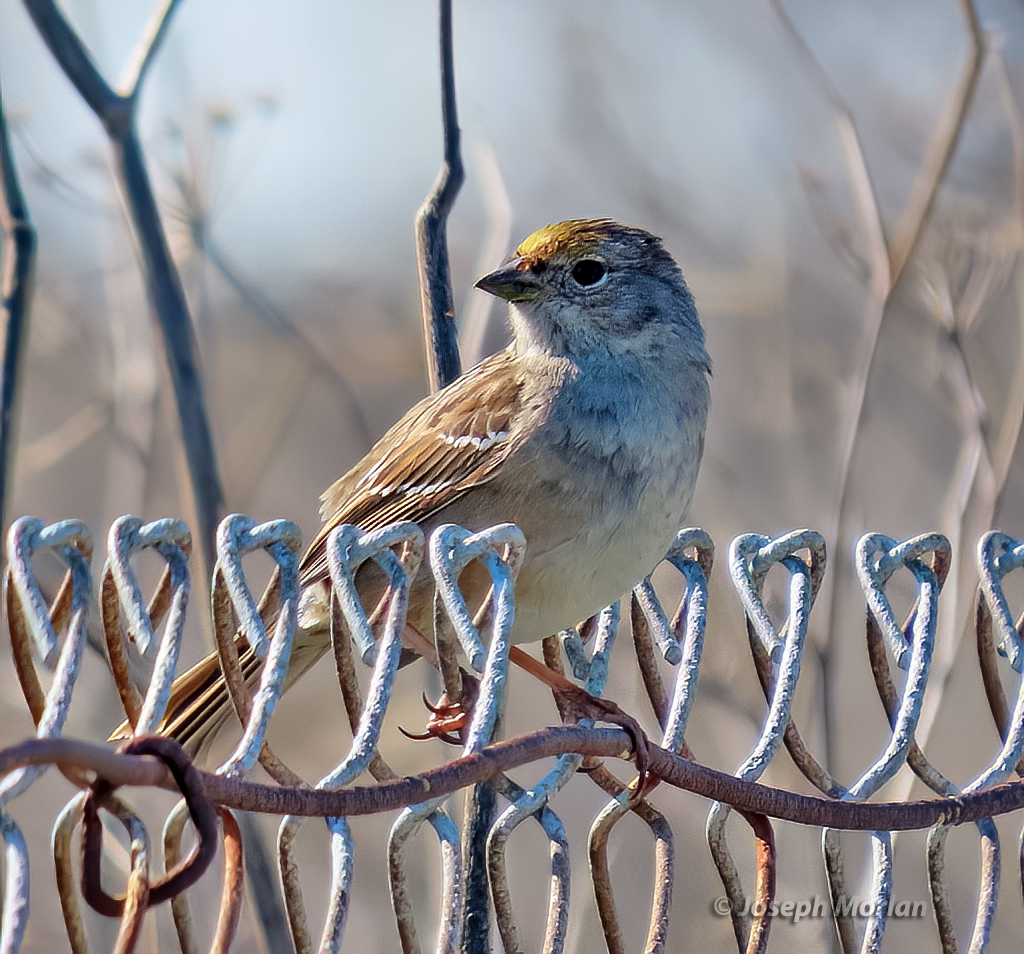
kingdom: Animalia
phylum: Chordata
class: Aves
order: Passeriformes
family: Passerellidae
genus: Zonotrichia
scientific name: Zonotrichia atricapilla
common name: Golden-crowned sparrow
